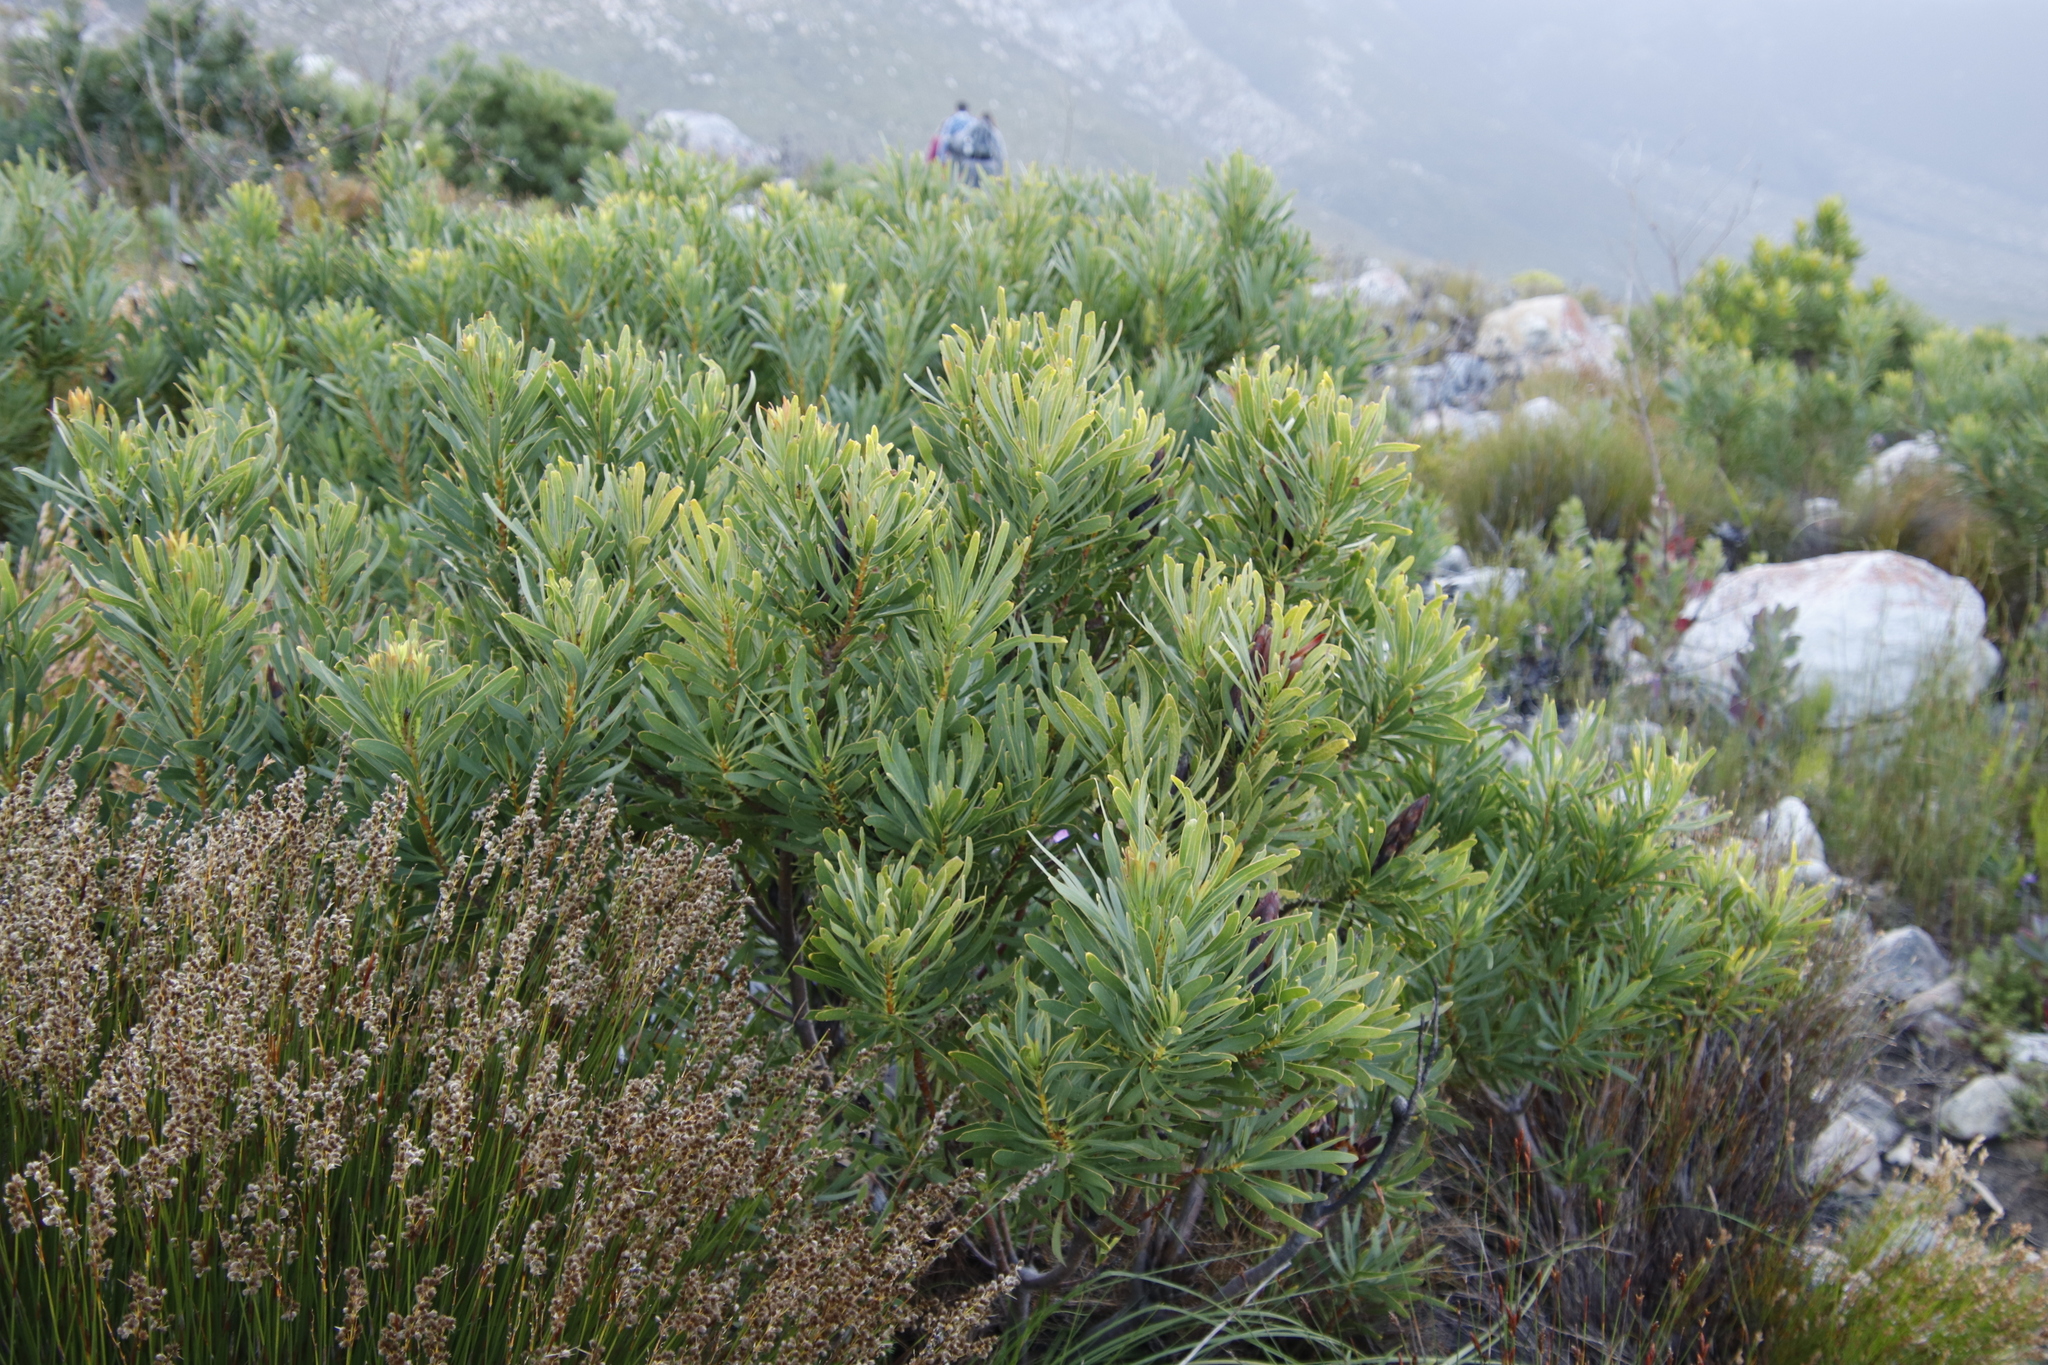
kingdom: Plantae
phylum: Tracheophyta
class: Magnoliopsida
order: Proteales
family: Proteaceae
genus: Protea
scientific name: Protea repens
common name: Sugarbush
